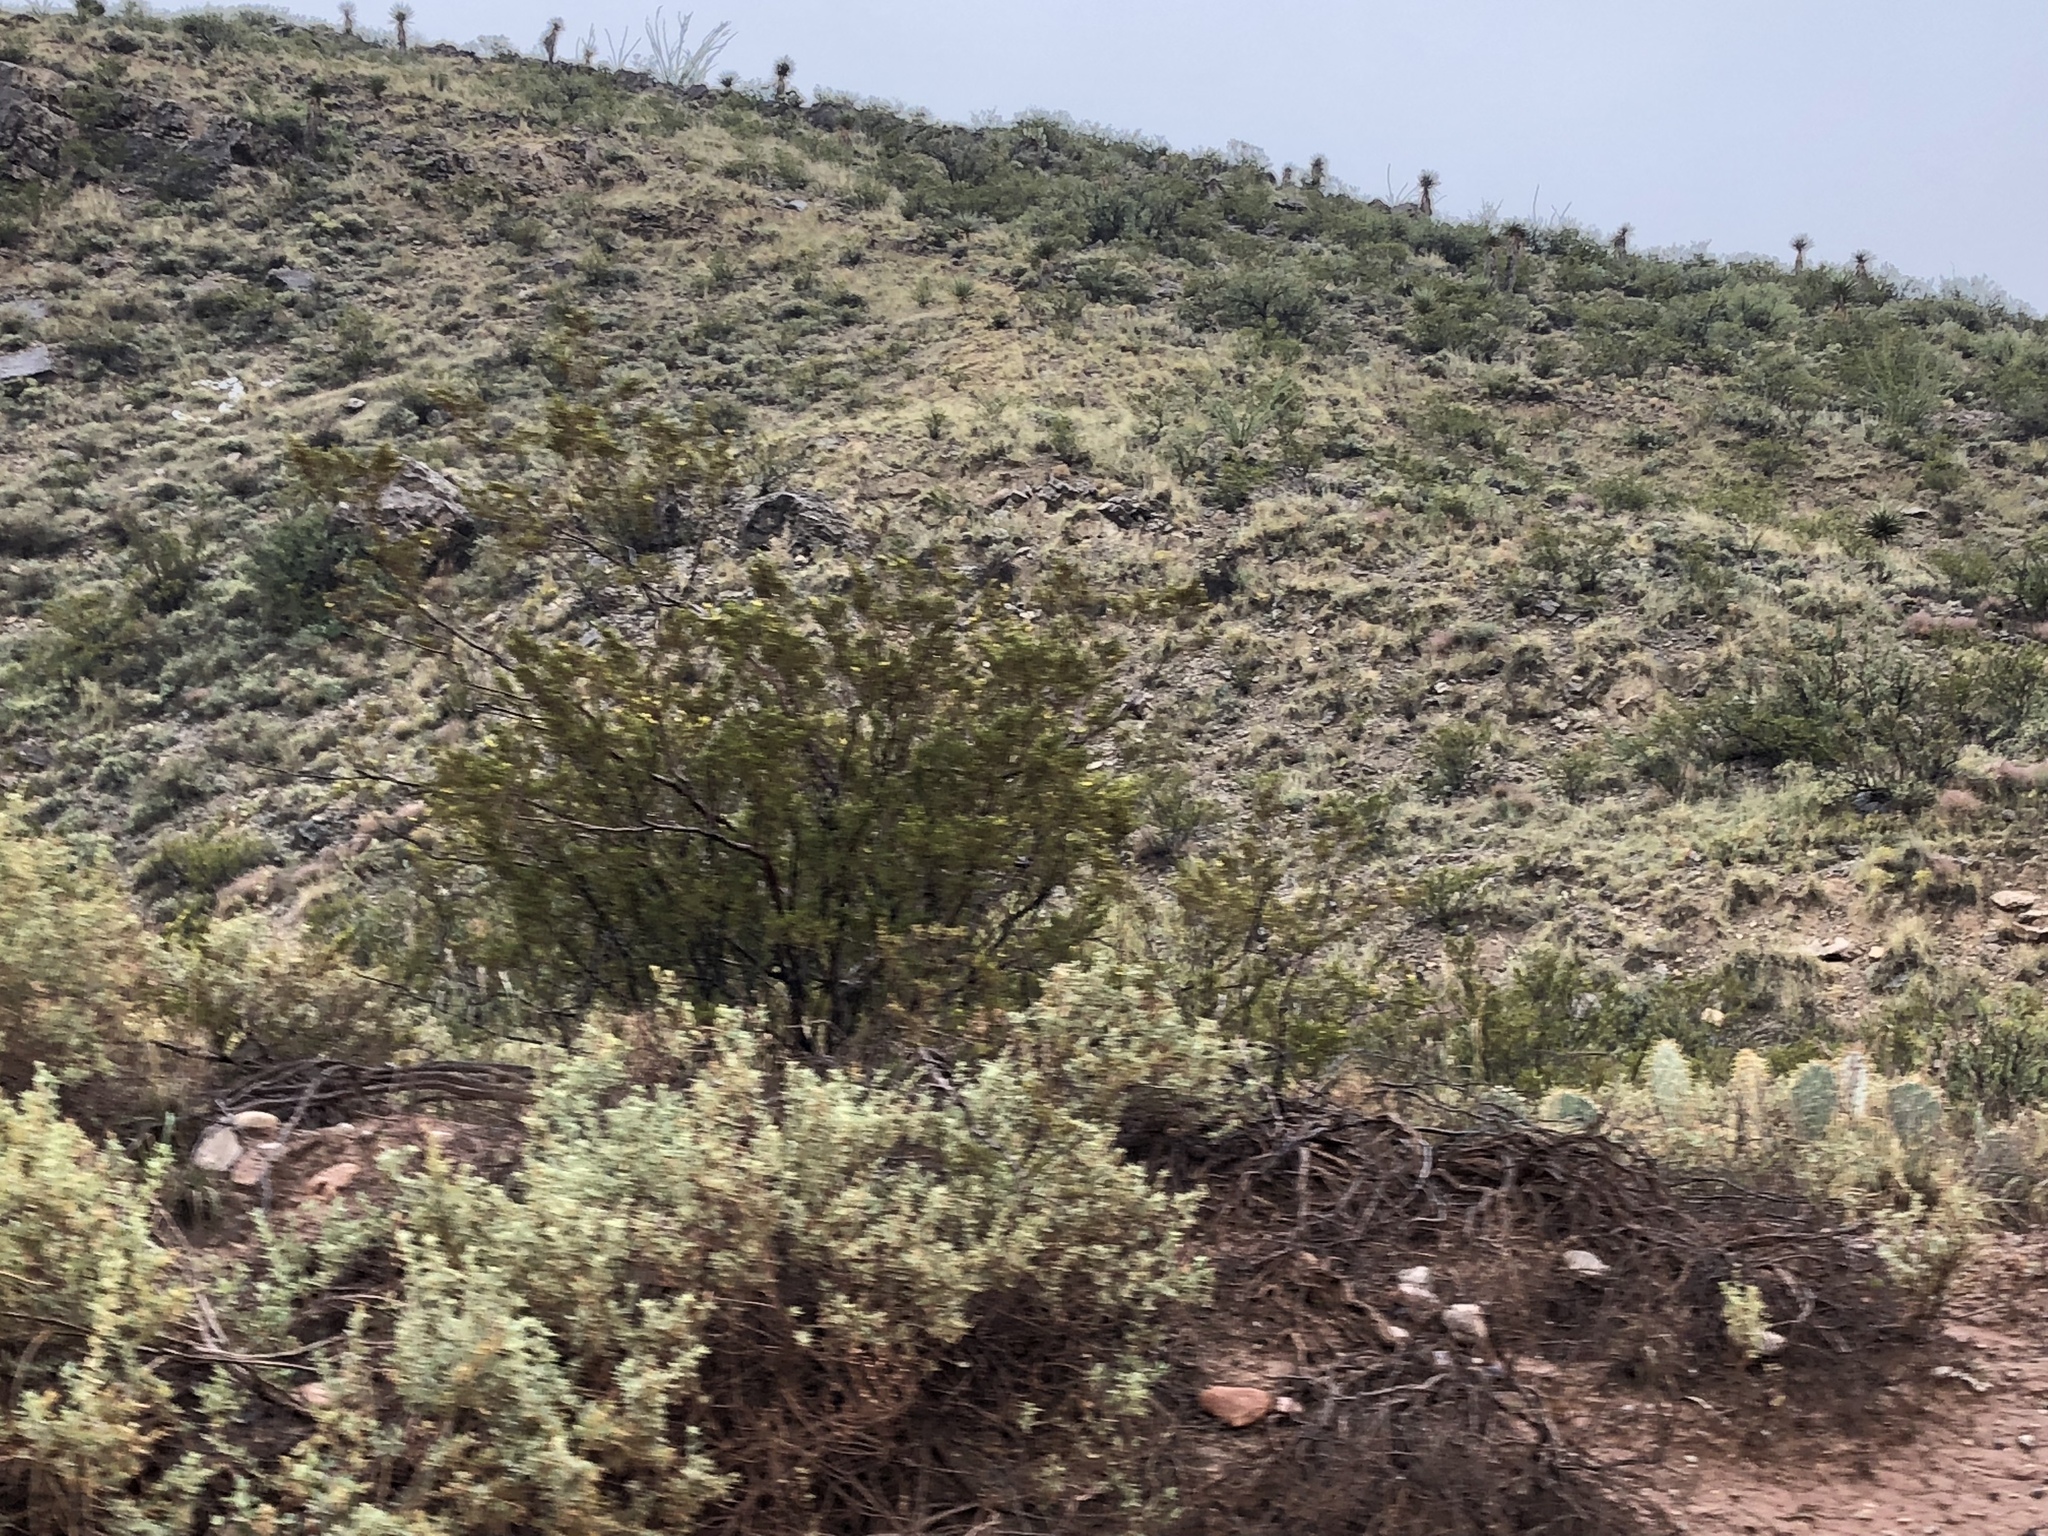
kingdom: Plantae
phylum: Tracheophyta
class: Magnoliopsida
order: Zygophyllales
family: Zygophyllaceae
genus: Larrea
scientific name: Larrea tridentata
